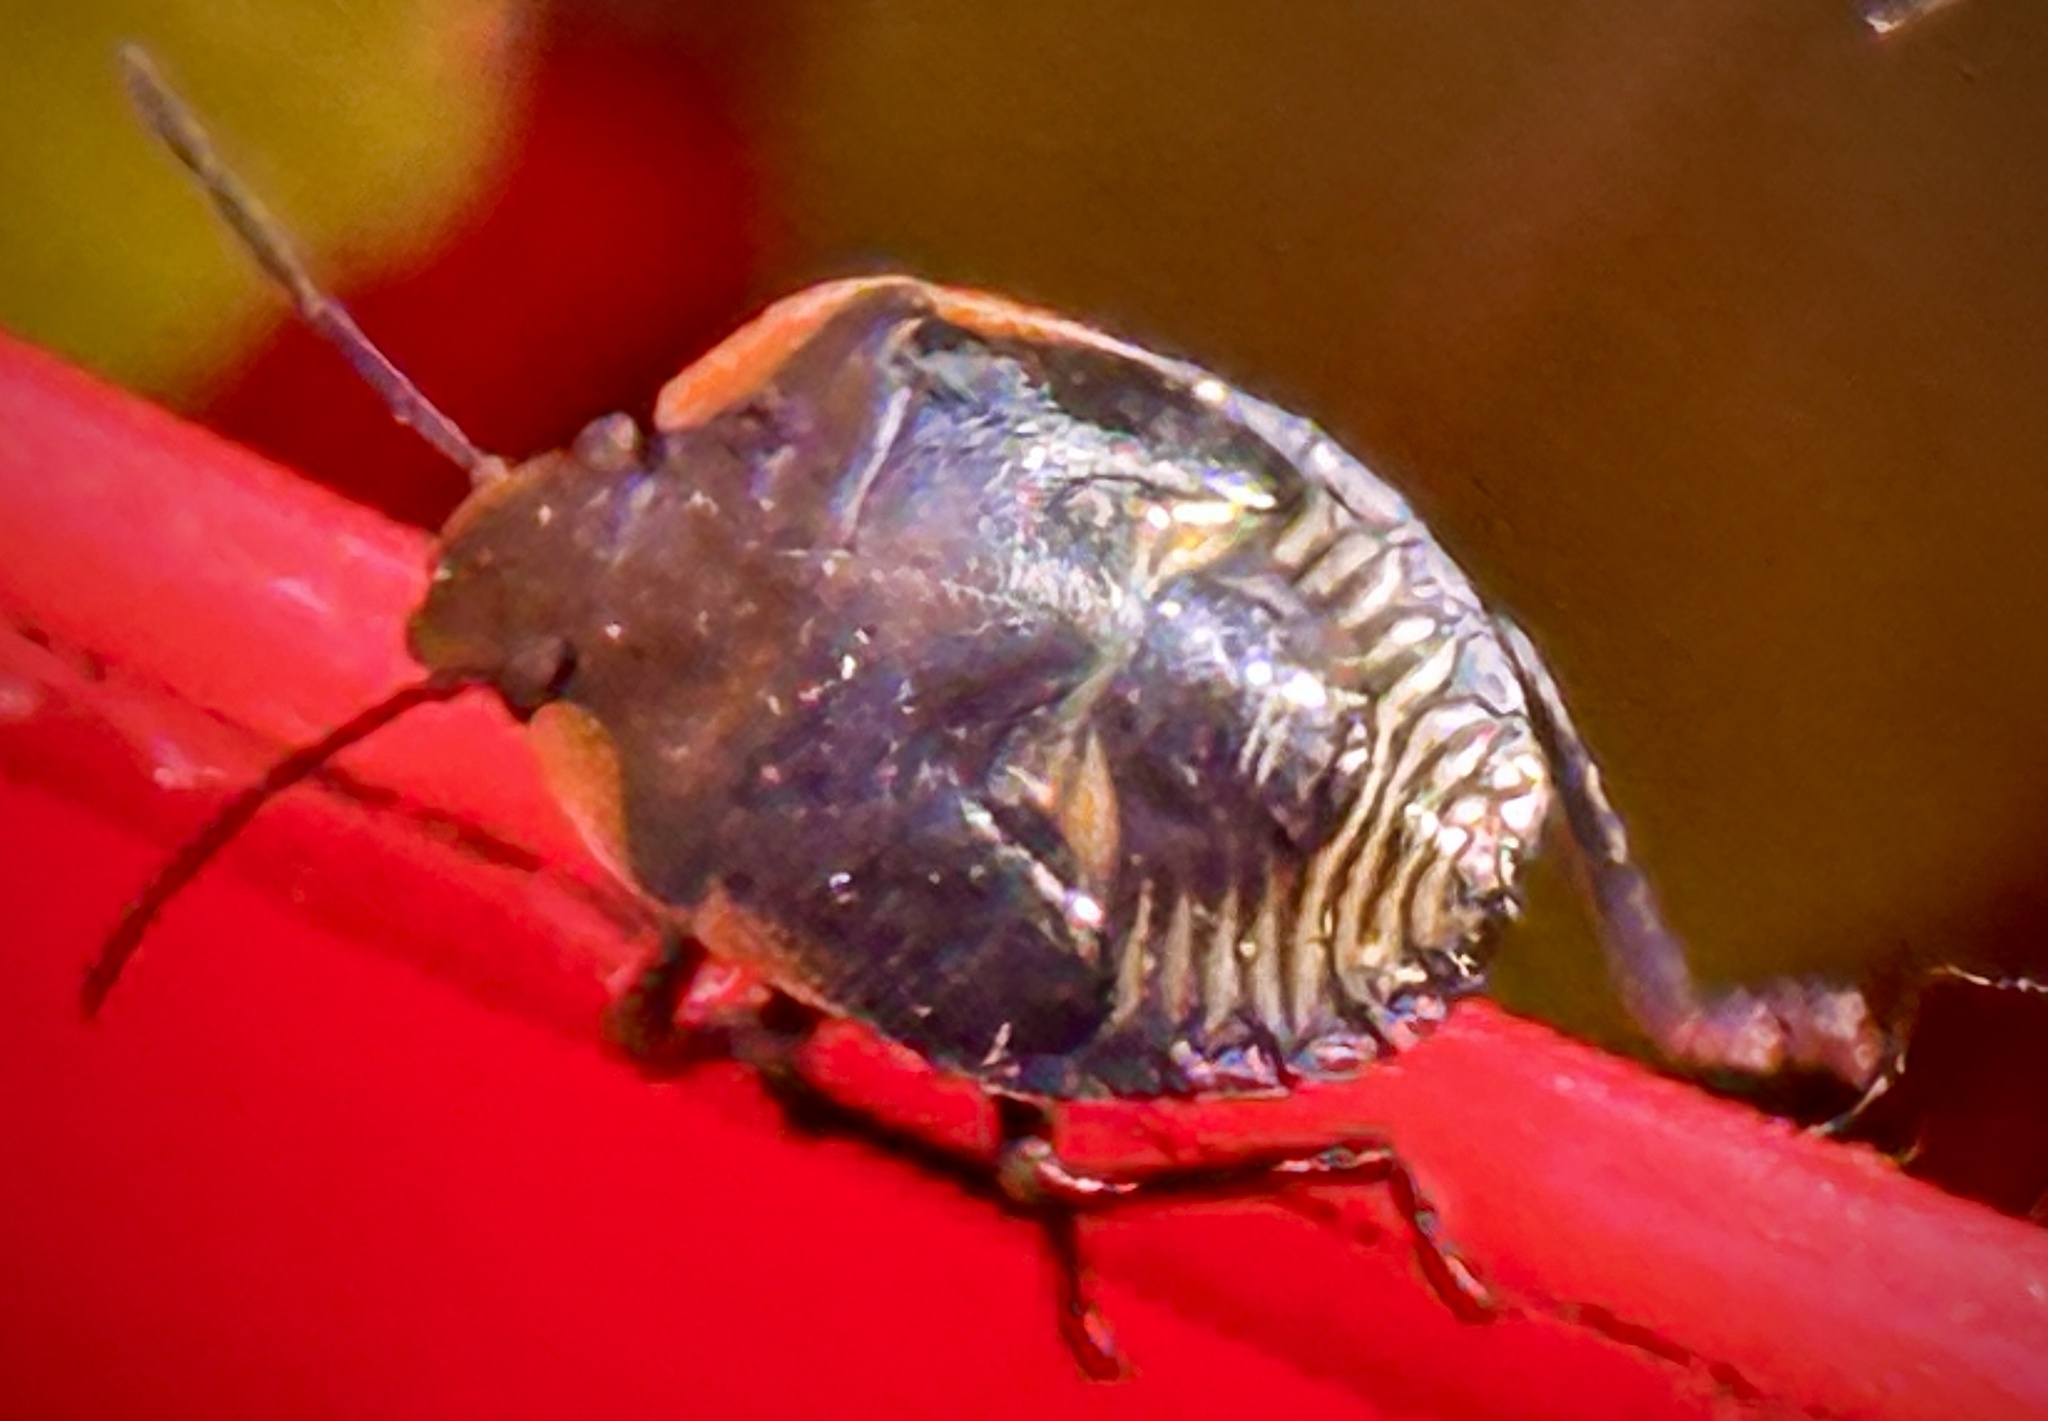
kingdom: Animalia
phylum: Arthropoda
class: Insecta
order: Hemiptera
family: Pentatomidae
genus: Chinavia
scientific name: Chinavia hilaris
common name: Green stink bug
